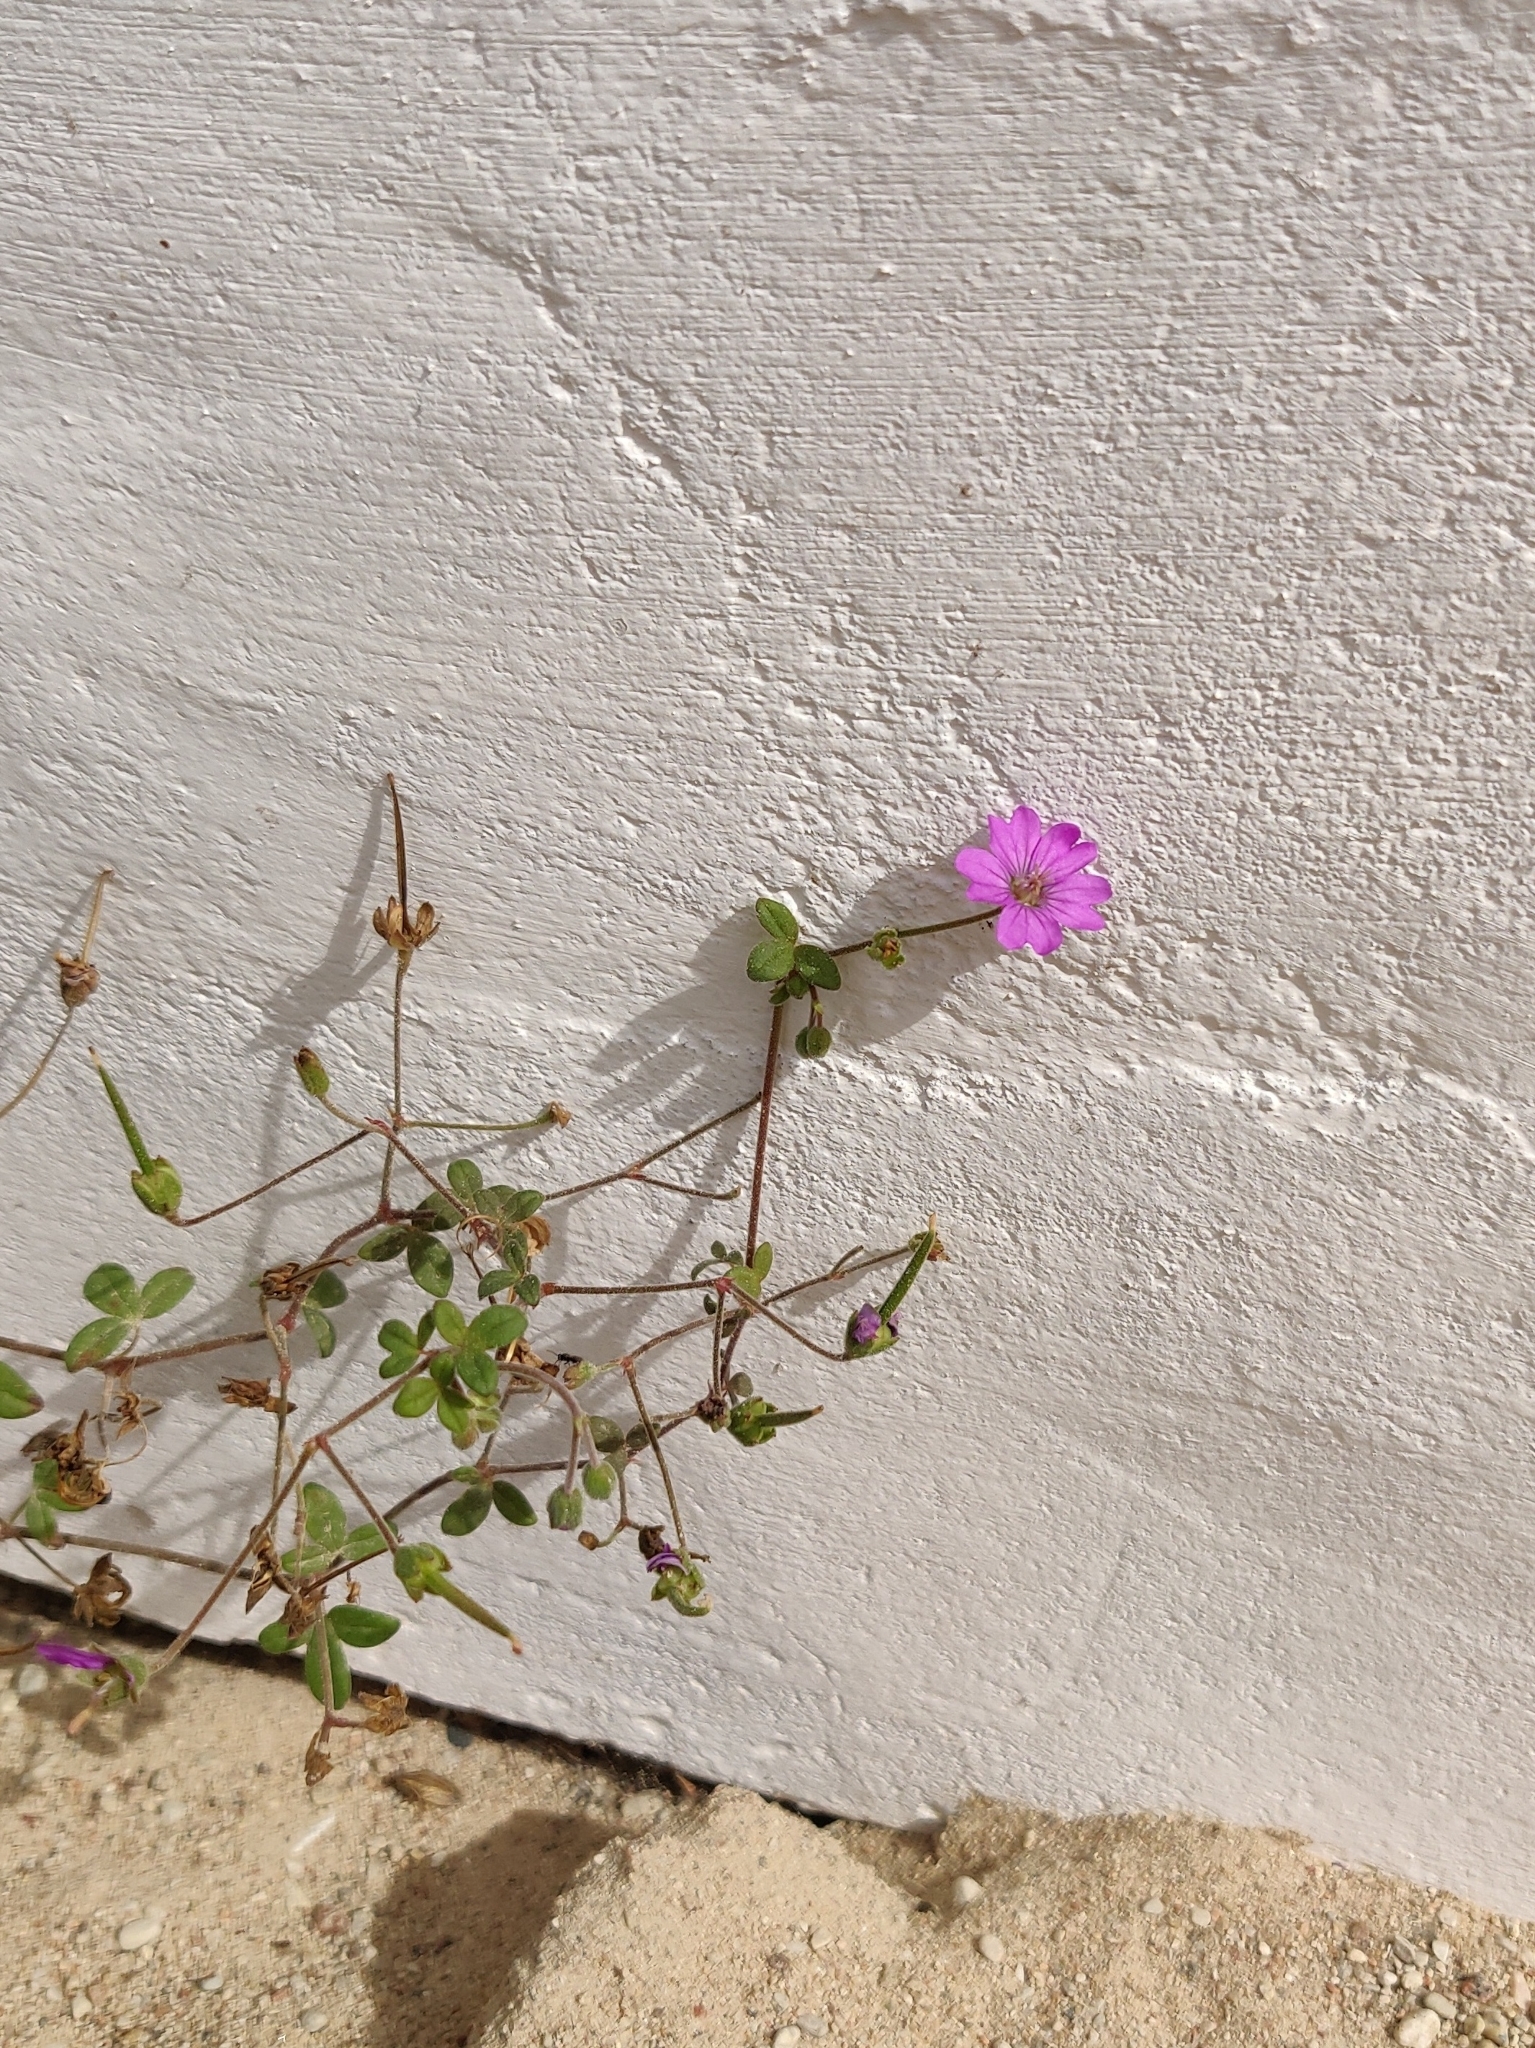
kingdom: Plantae
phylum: Tracheophyta
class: Magnoliopsida
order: Geraniales
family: Geraniaceae
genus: Geranium
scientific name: Geranium pyrenaicum
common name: Hedgerow crane's-bill
